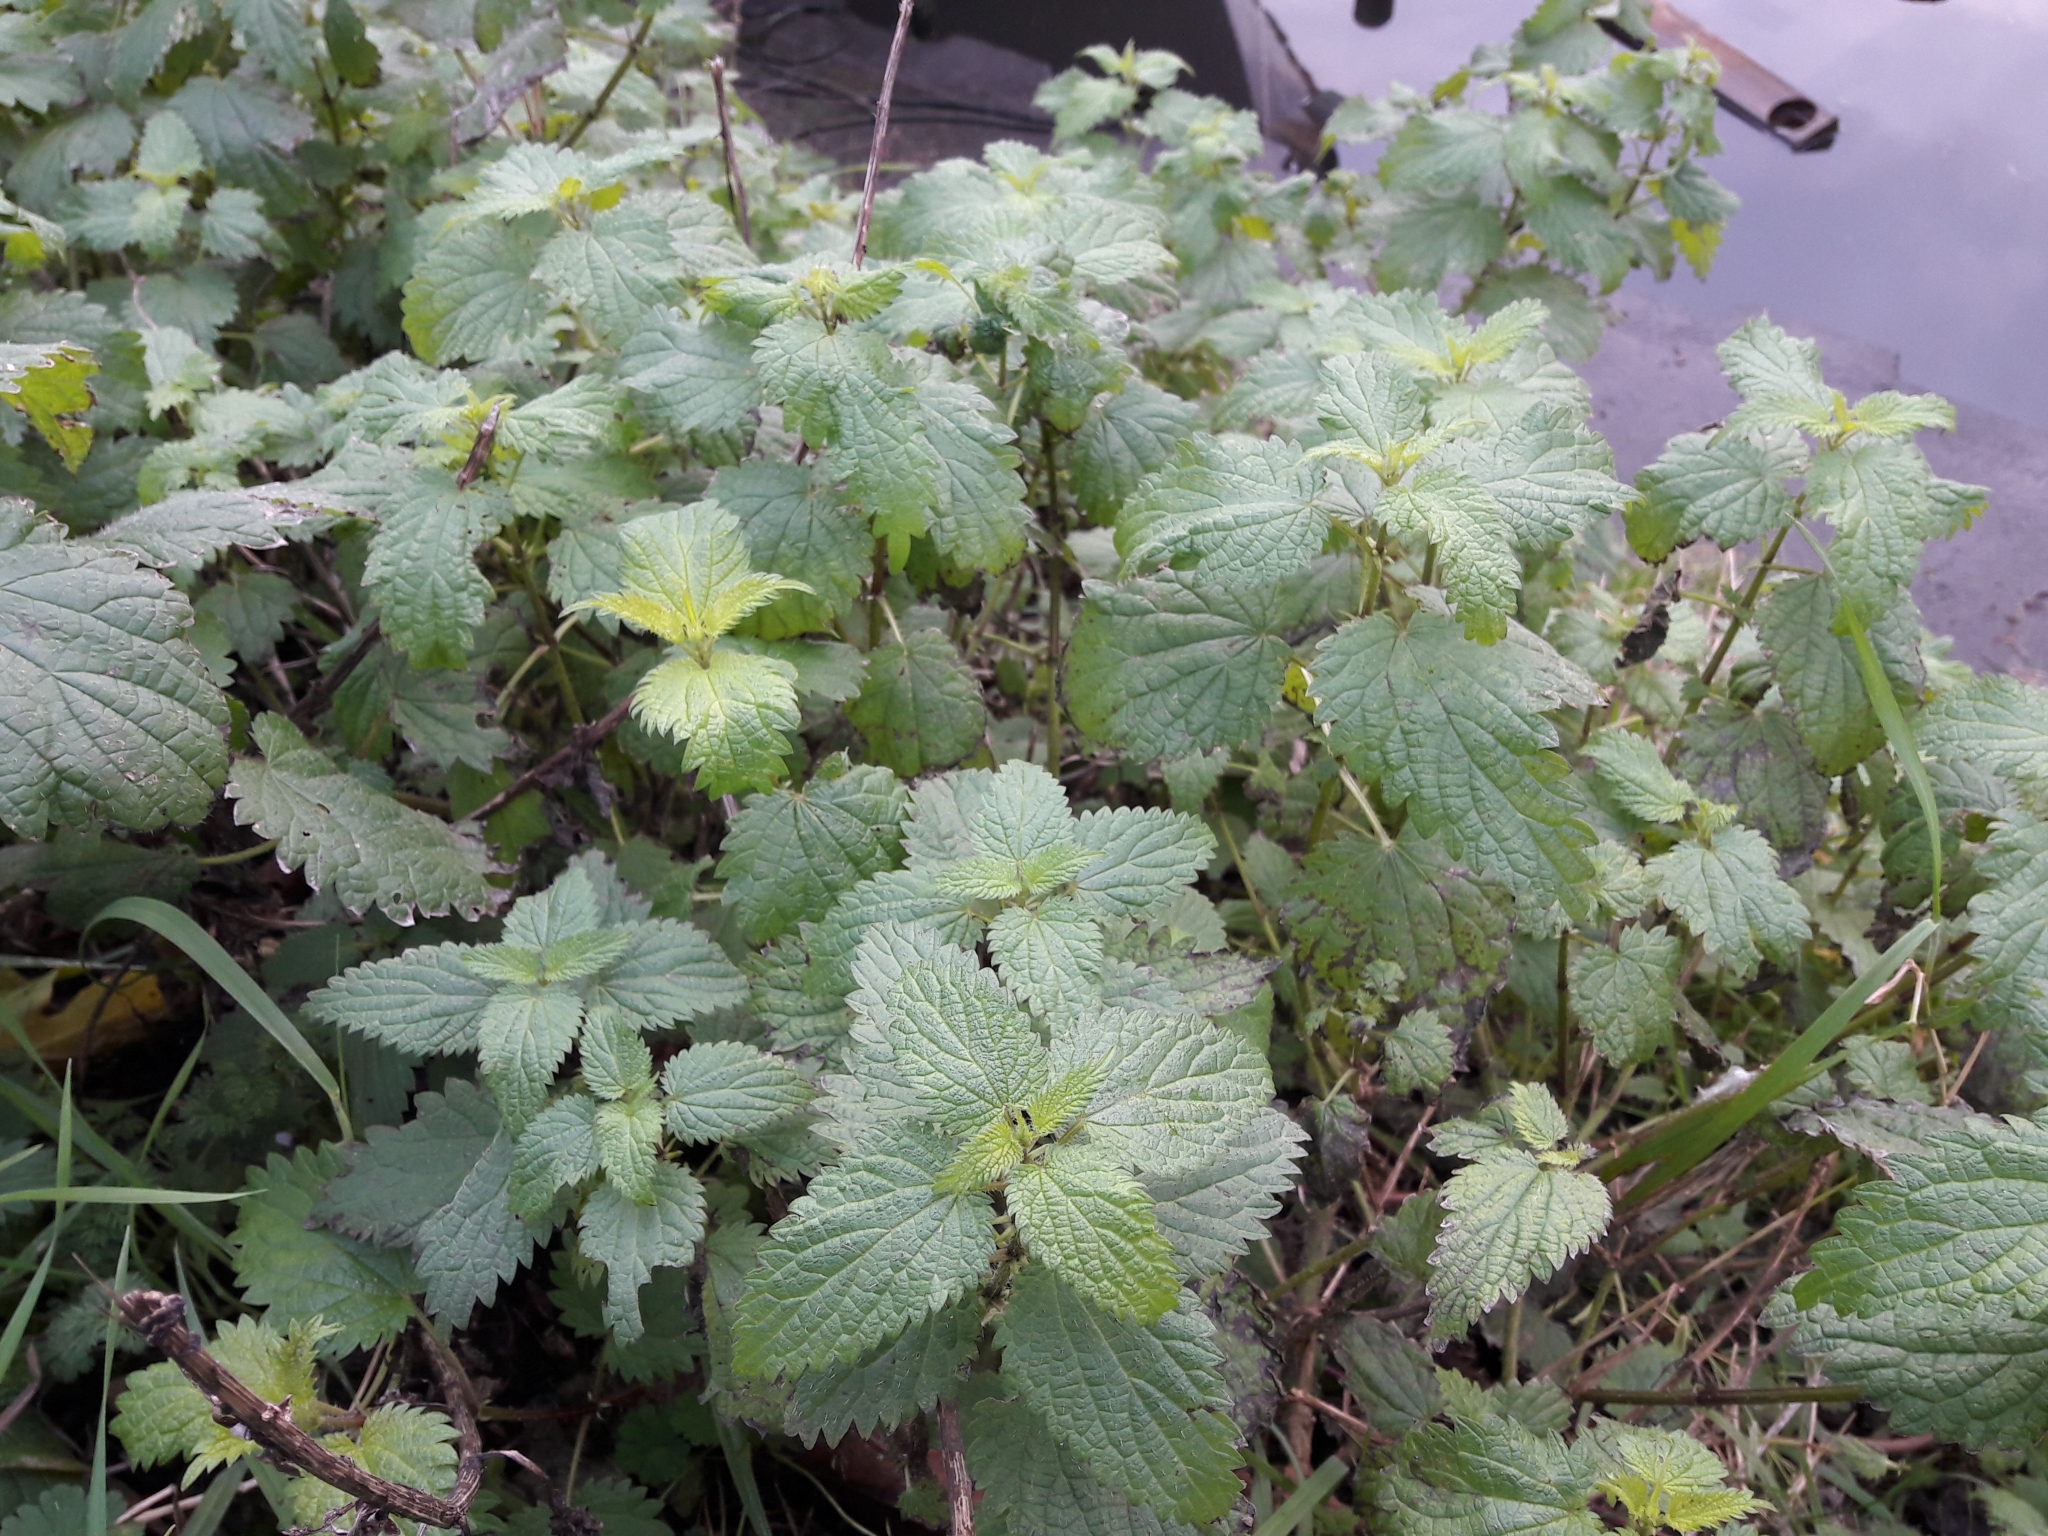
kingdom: Plantae
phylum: Tracheophyta
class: Magnoliopsida
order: Rosales
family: Urticaceae
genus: Urtica
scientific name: Urtica dioica
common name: Common nettle
